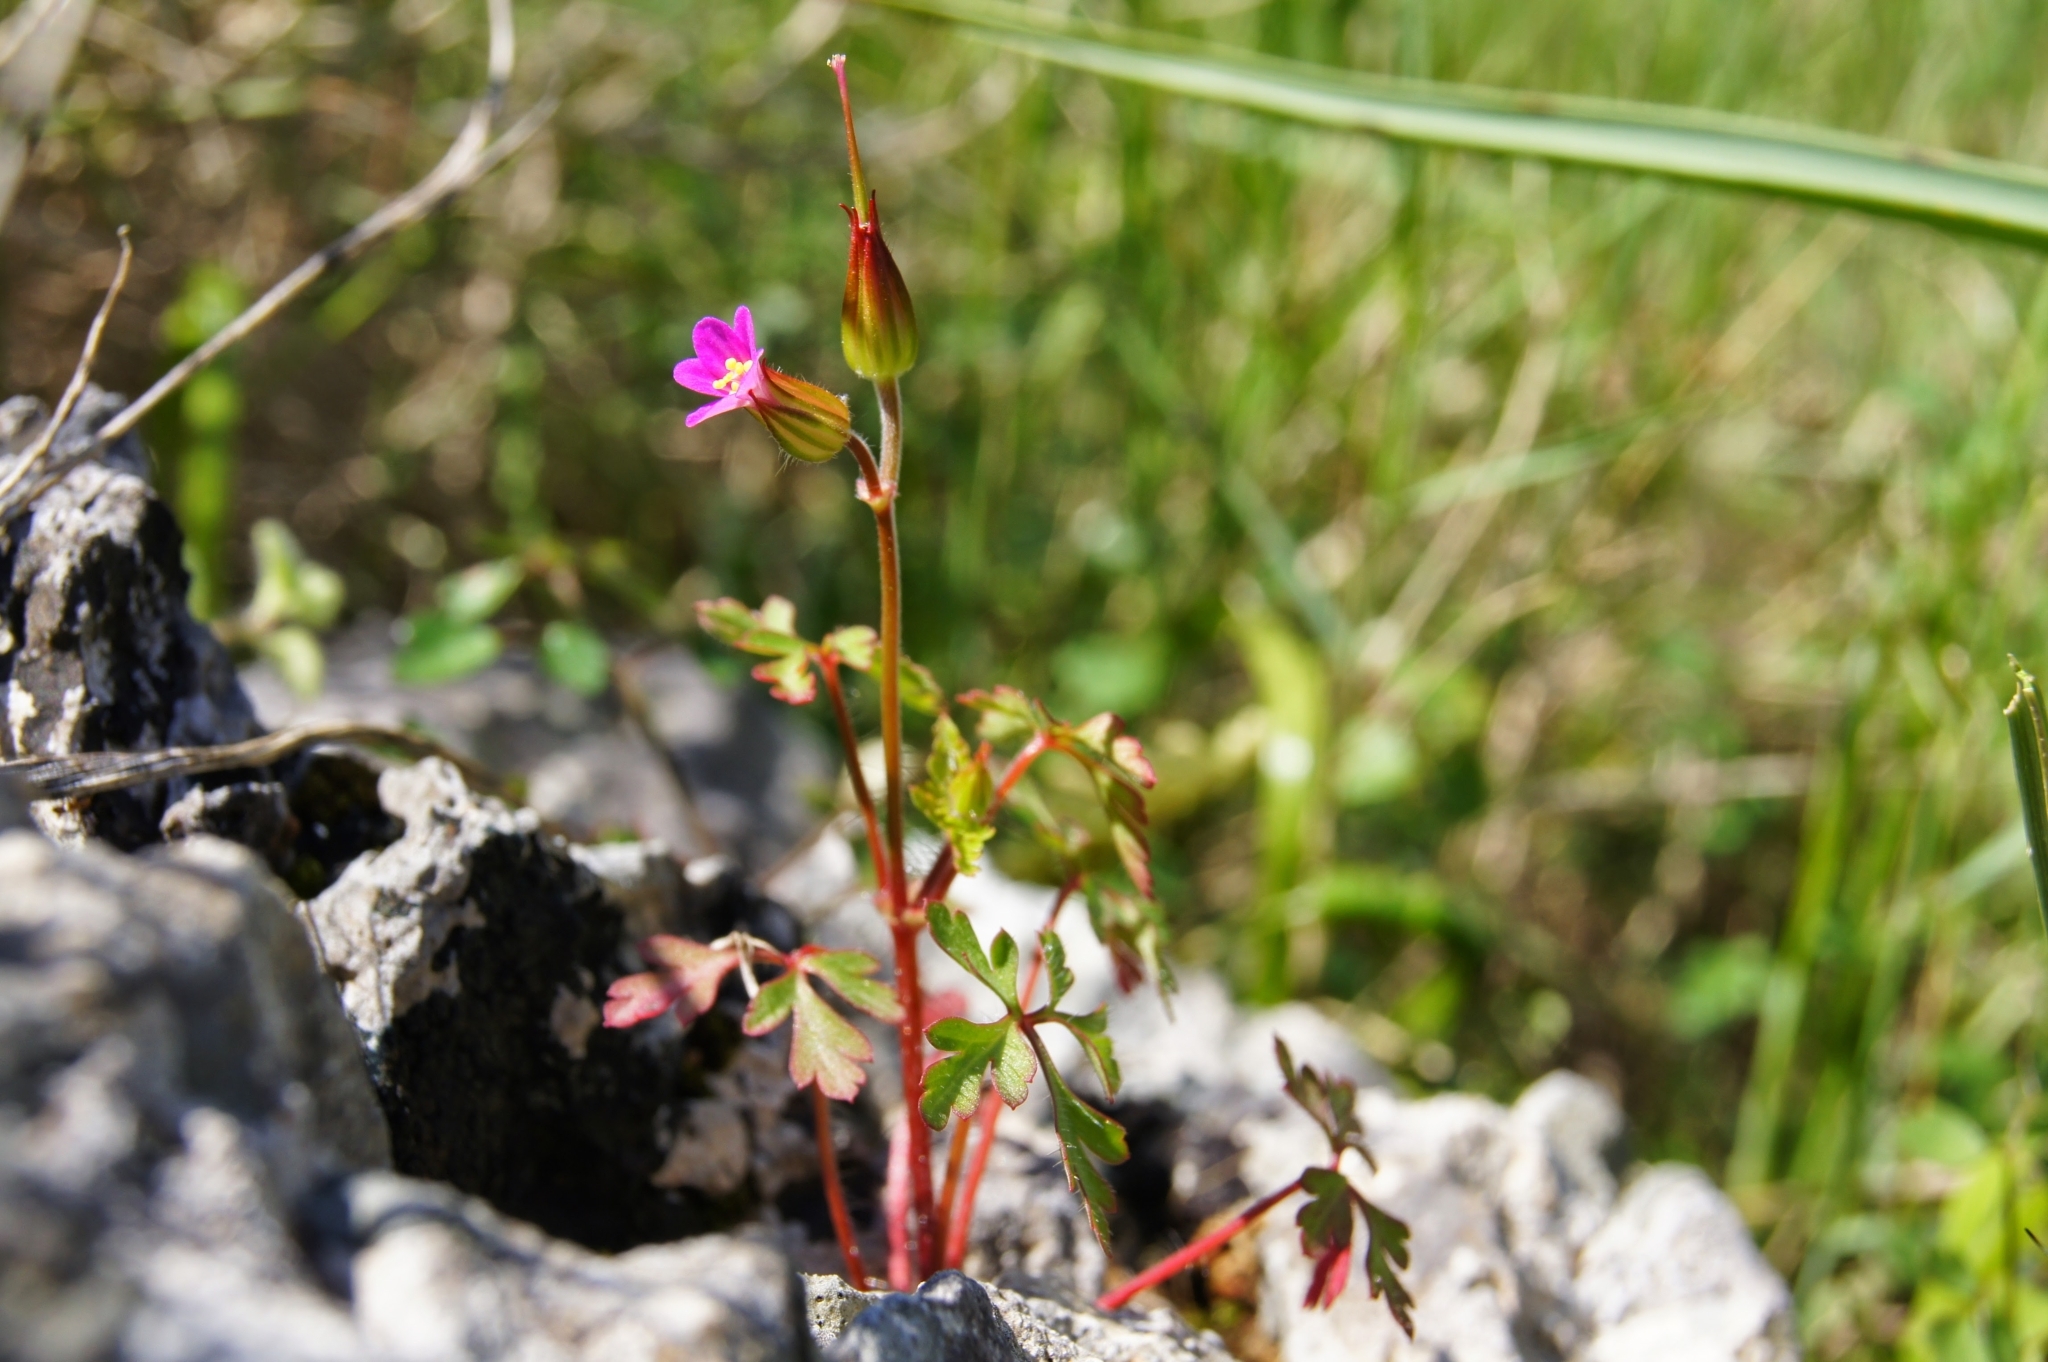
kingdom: Plantae
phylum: Tracheophyta
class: Magnoliopsida
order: Geraniales
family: Geraniaceae
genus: Geranium
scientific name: Geranium purpureum
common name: Little-robin
